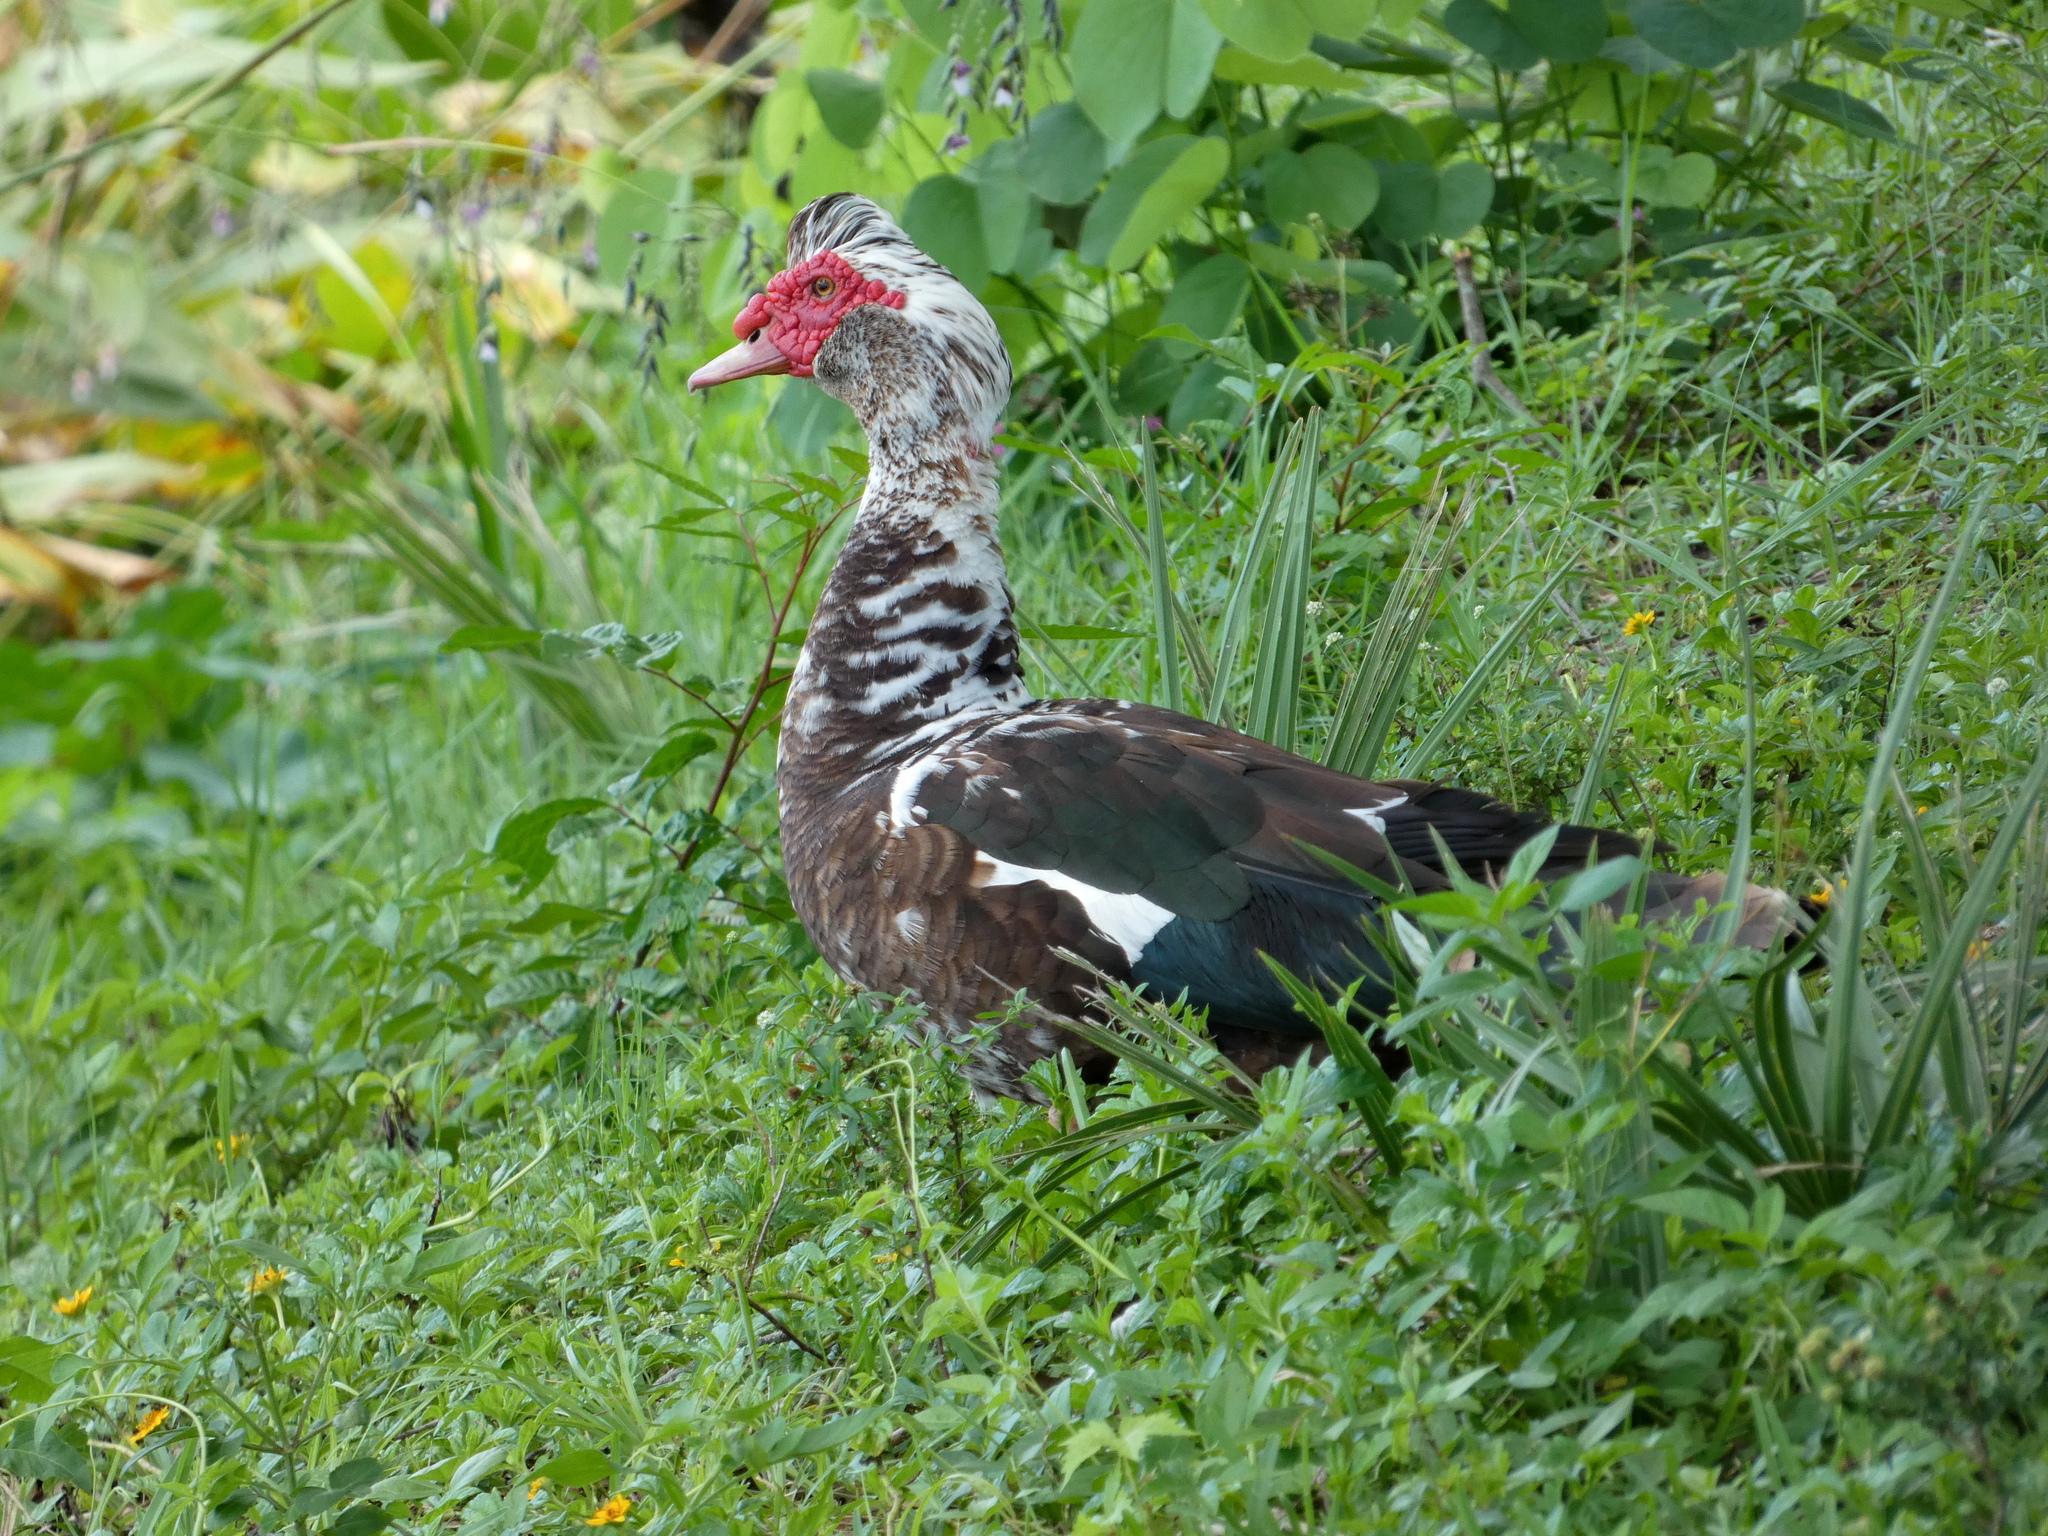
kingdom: Animalia
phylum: Chordata
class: Aves
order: Anseriformes
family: Anatidae
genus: Cairina
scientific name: Cairina moschata
